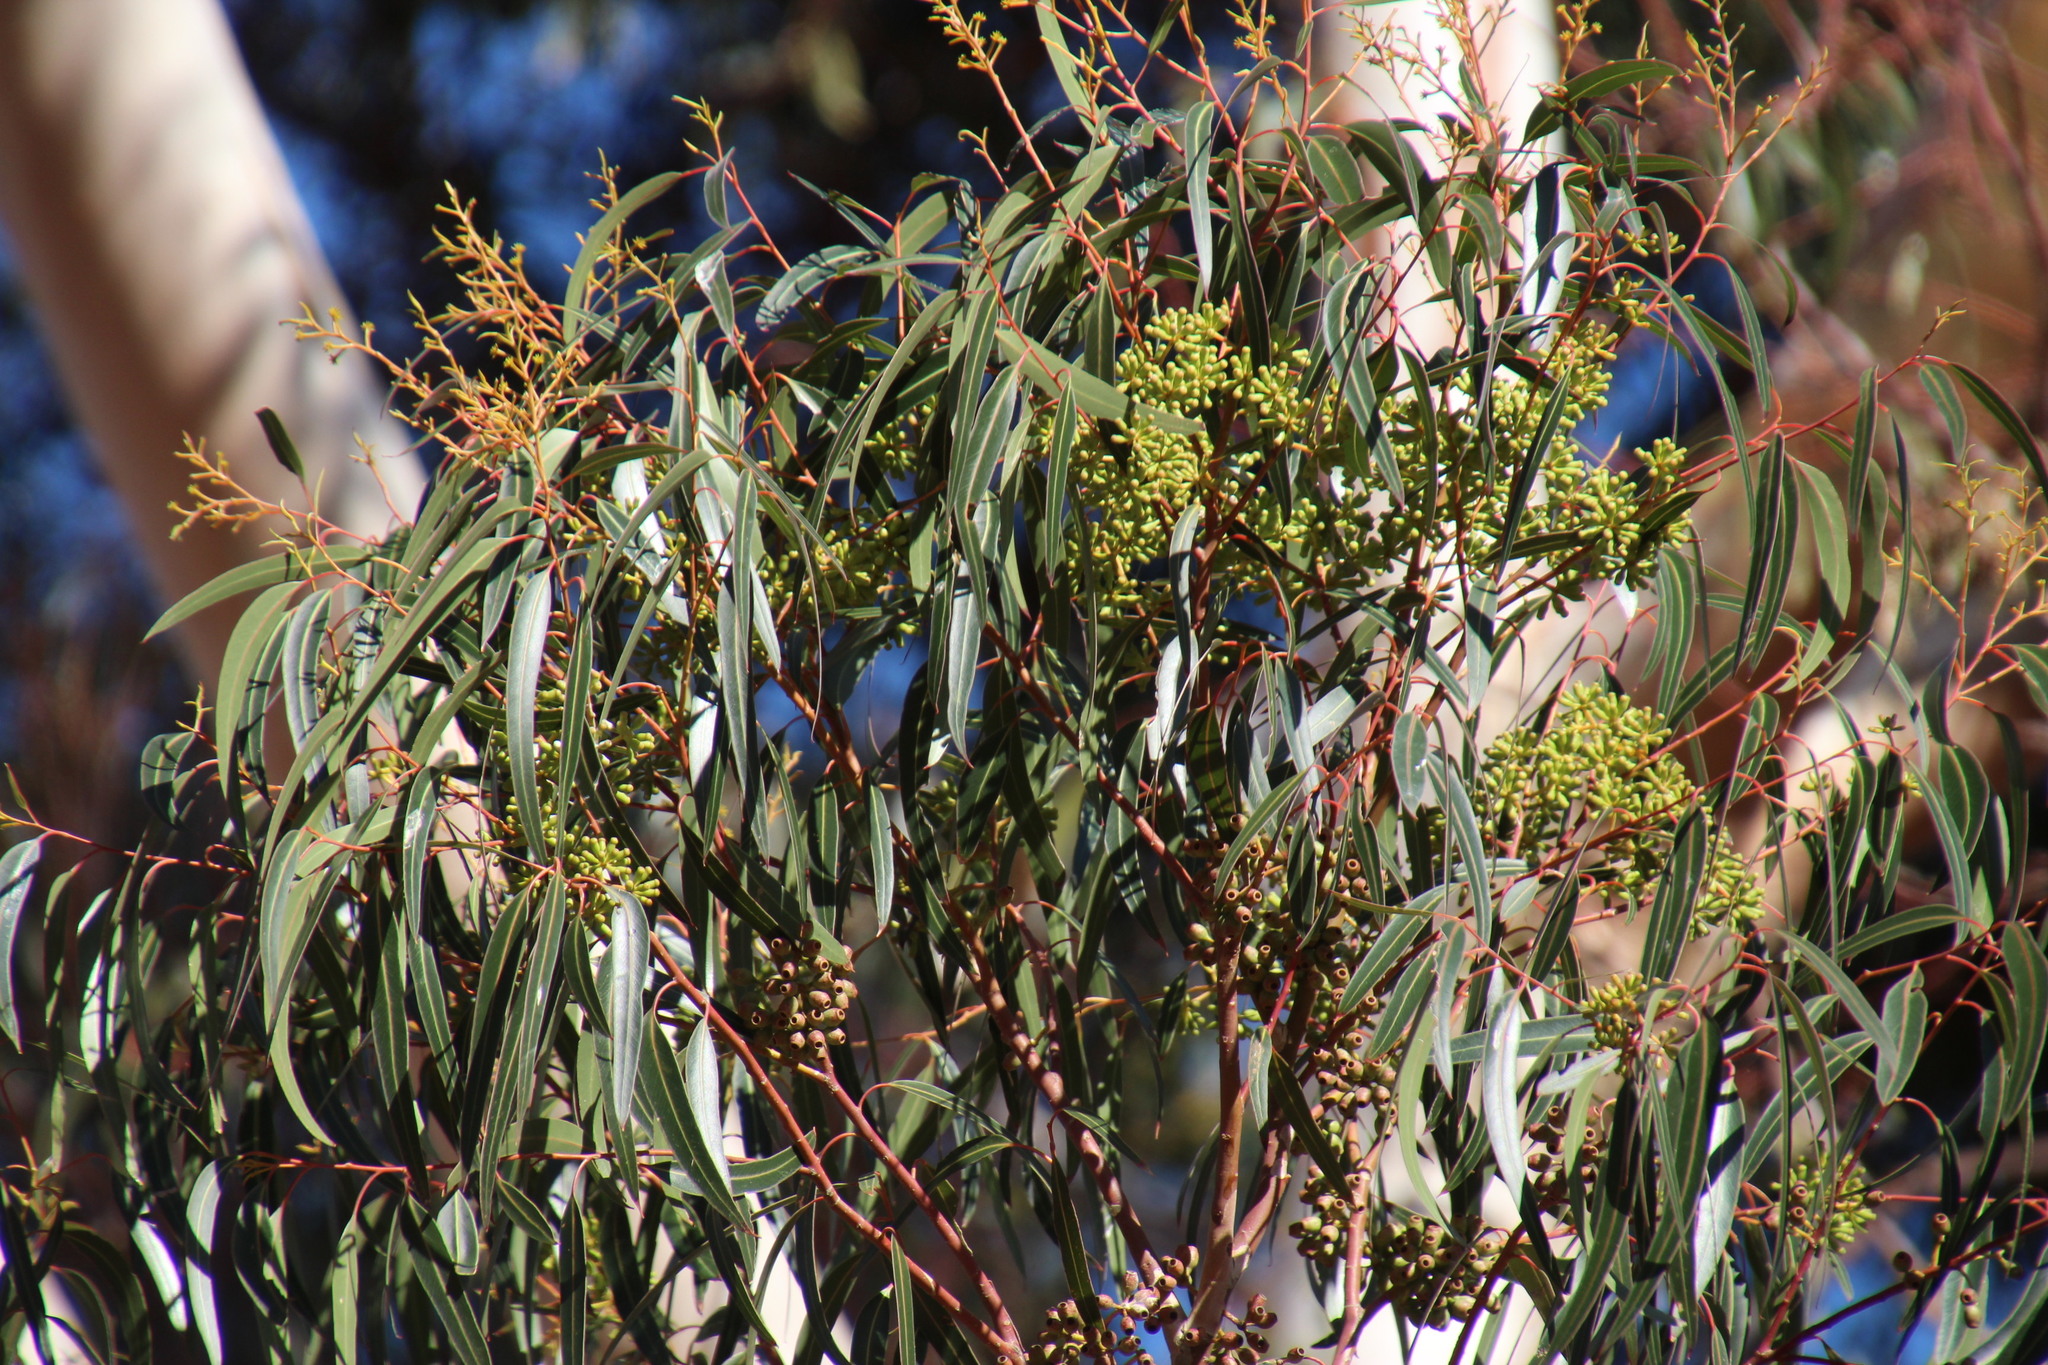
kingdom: Plantae
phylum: Tracheophyta
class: Magnoliopsida
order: Myrtales
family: Myrtaceae
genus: Eucalyptus
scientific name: Eucalyptus cladocalyx
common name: Sugargum
